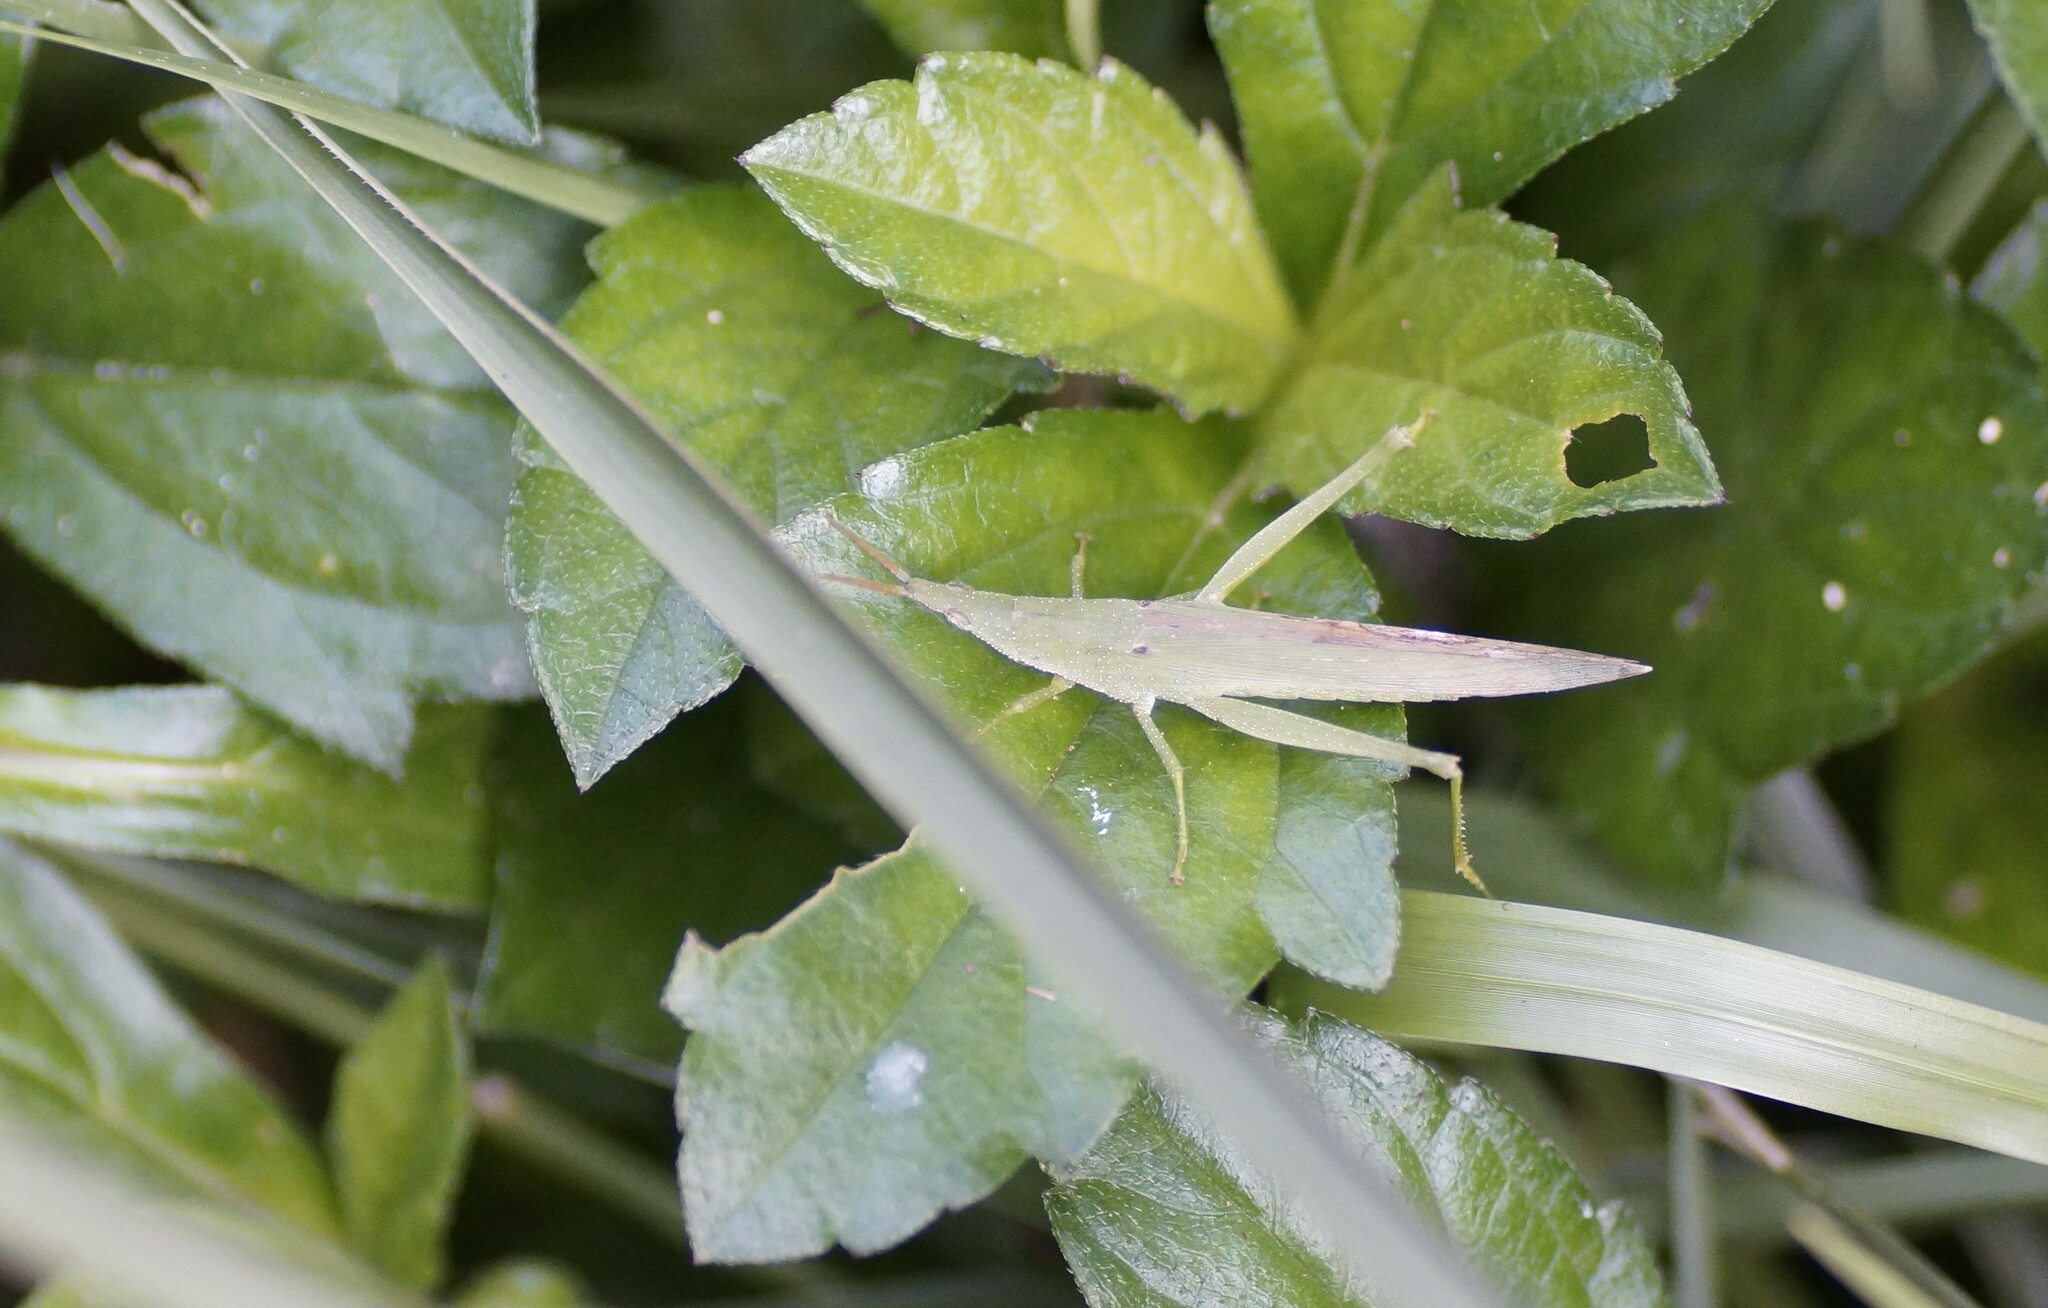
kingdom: Animalia
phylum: Arthropoda
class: Insecta
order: Orthoptera
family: Pyrgomorphidae
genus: Atractomorpha
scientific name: Atractomorpha similis
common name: Northern grass pyrgomorph
